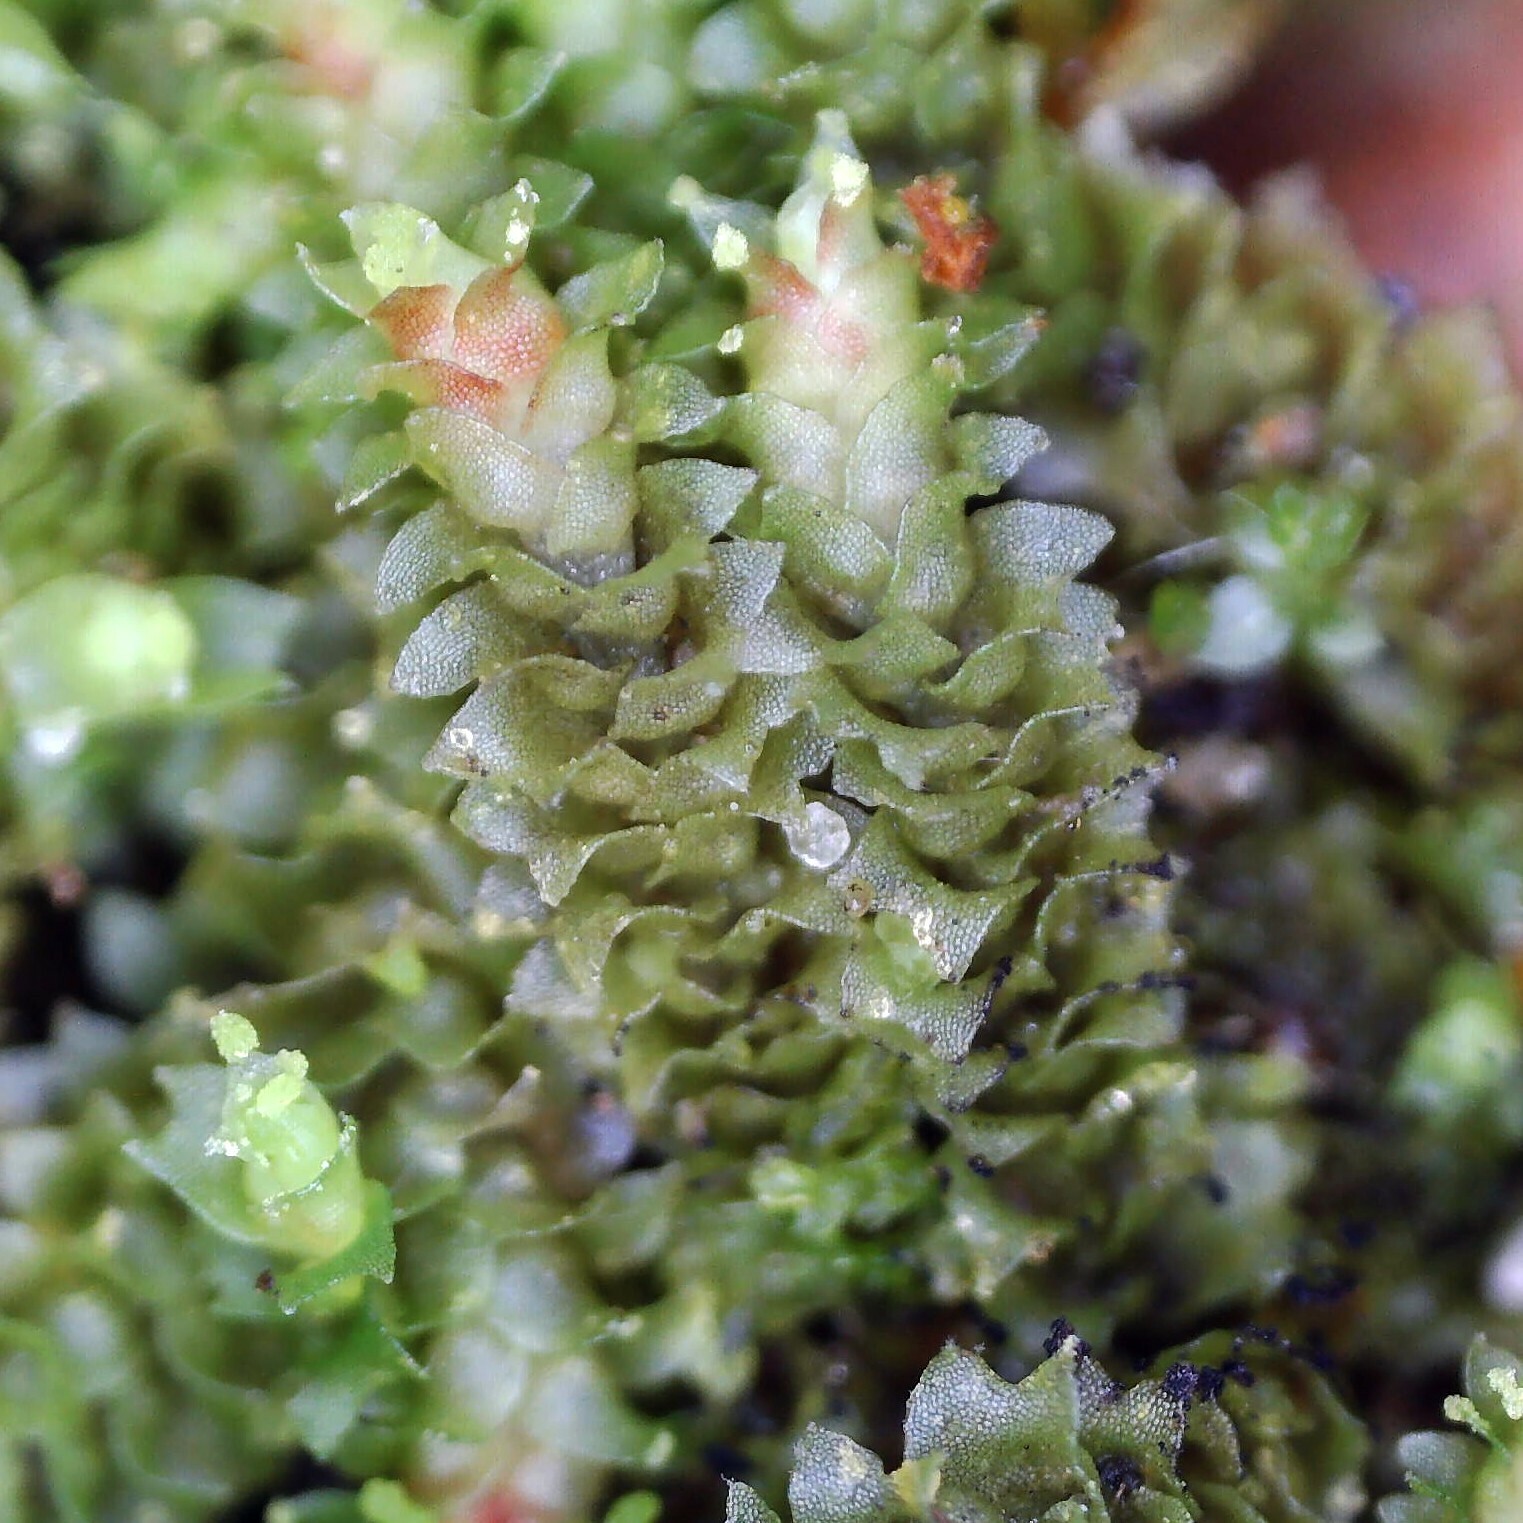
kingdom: Plantae
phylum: Marchantiophyta
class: Jungermanniopsida
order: Jungermanniales
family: Lophoziaceae
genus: Lophozia
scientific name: Lophozia ventricosa
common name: Tumid notchwort
